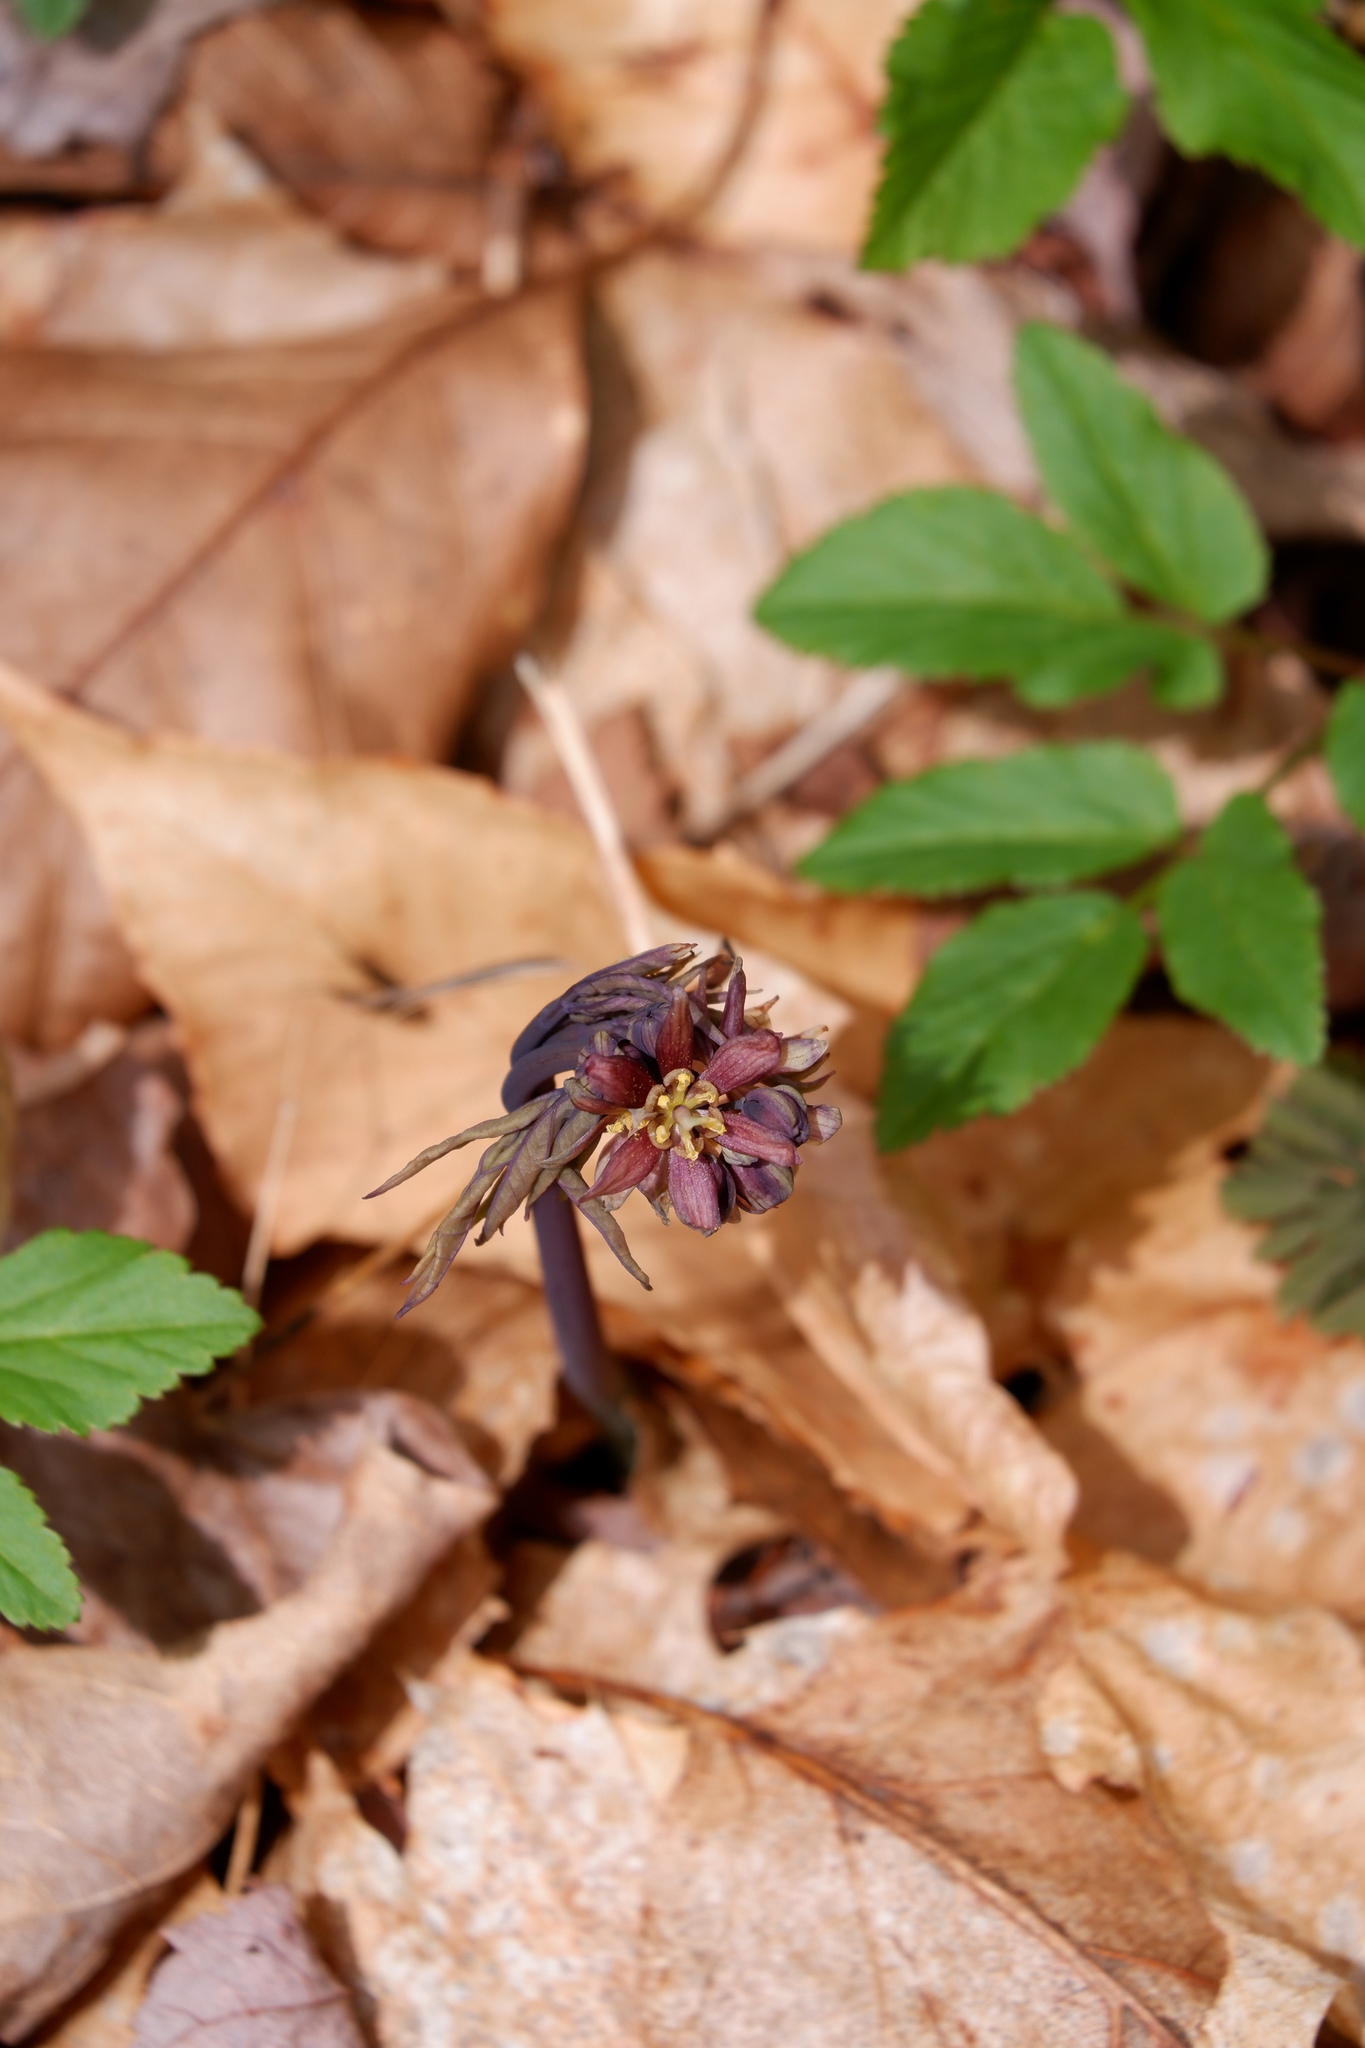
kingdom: Plantae
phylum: Tracheophyta
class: Magnoliopsida
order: Ranunculales
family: Berberidaceae
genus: Caulophyllum
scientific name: Caulophyllum giganteum
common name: Blue cohosh
